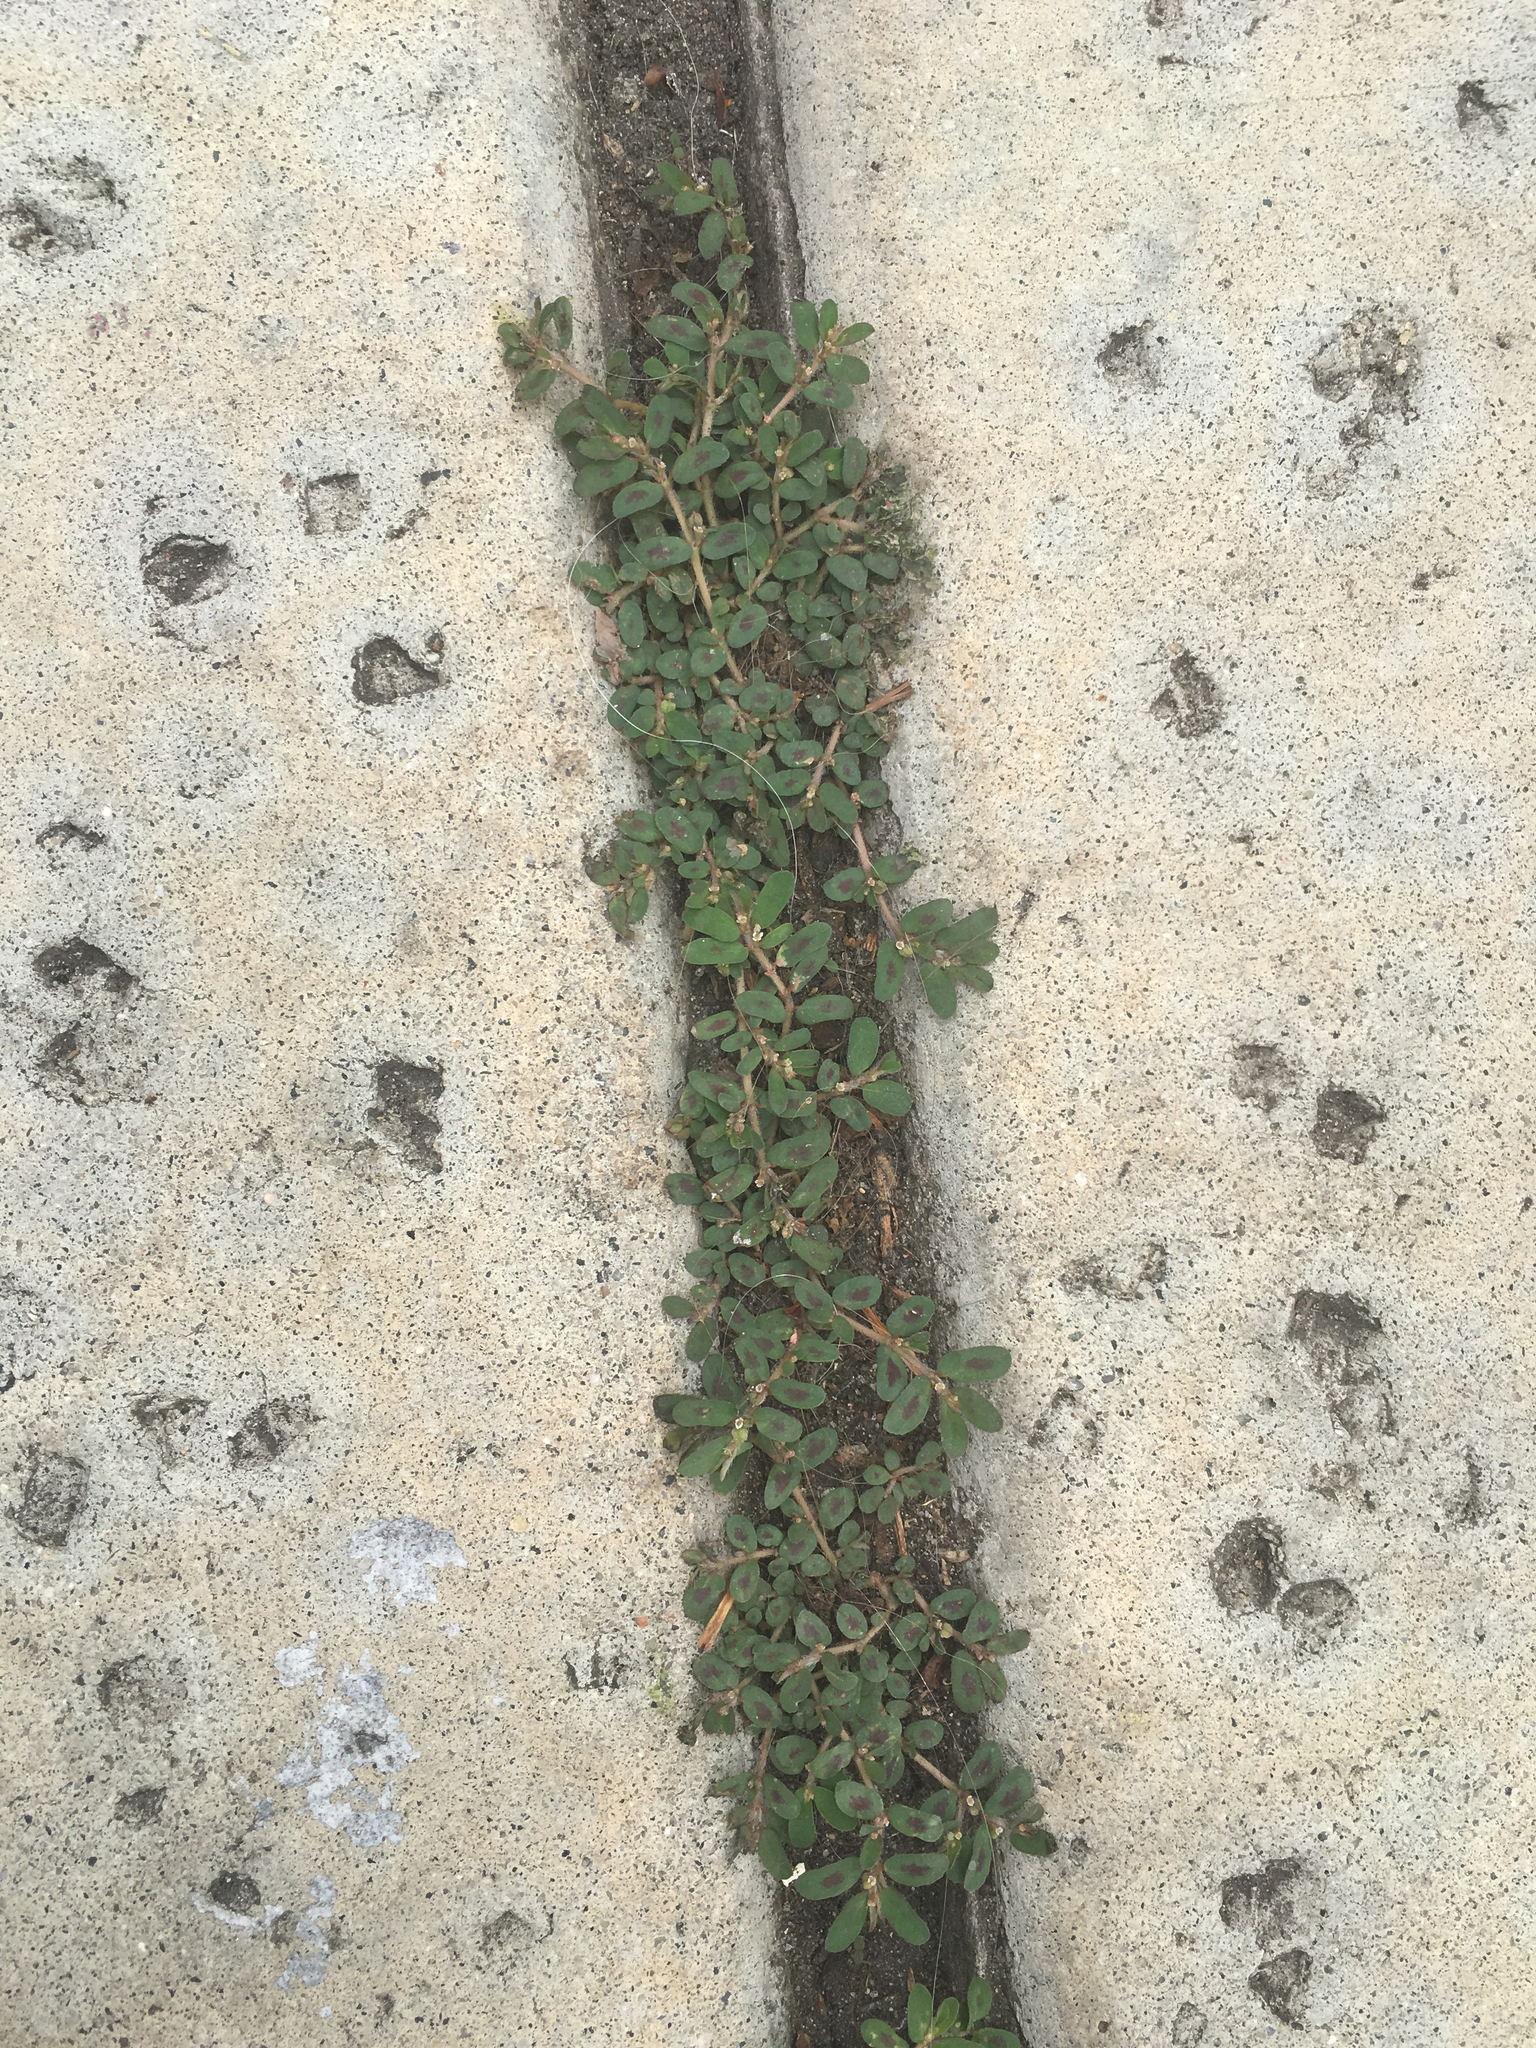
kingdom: Plantae
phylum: Tracheophyta
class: Magnoliopsida
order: Malpighiales
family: Euphorbiaceae
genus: Euphorbia
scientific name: Euphorbia maculata
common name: Spotted spurge
